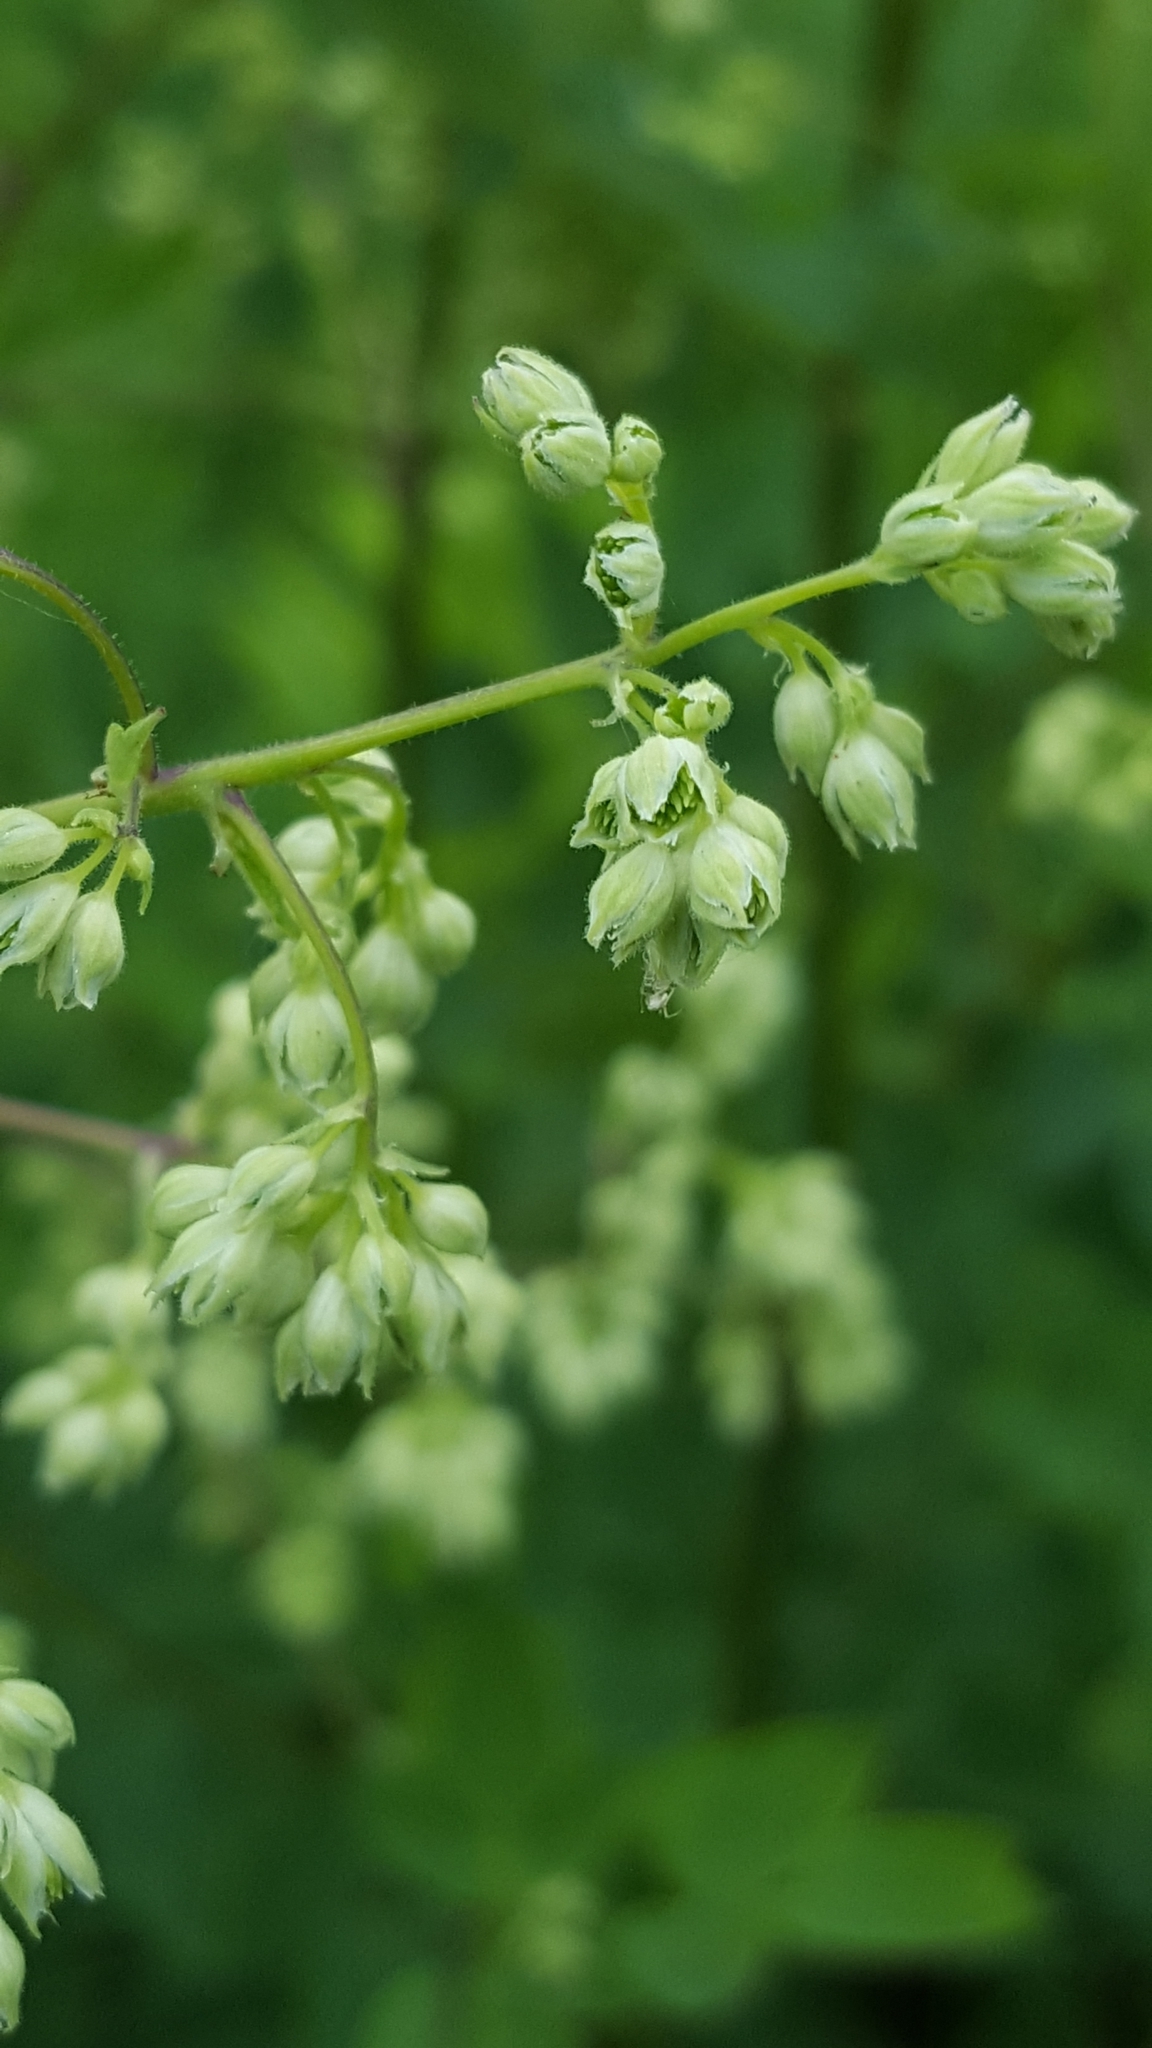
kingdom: Plantae
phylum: Tracheophyta
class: Magnoliopsida
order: Ranunculales
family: Ranunculaceae
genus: Thalictrum
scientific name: Thalictrum dasycarpum
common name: Purple meadow-rue
